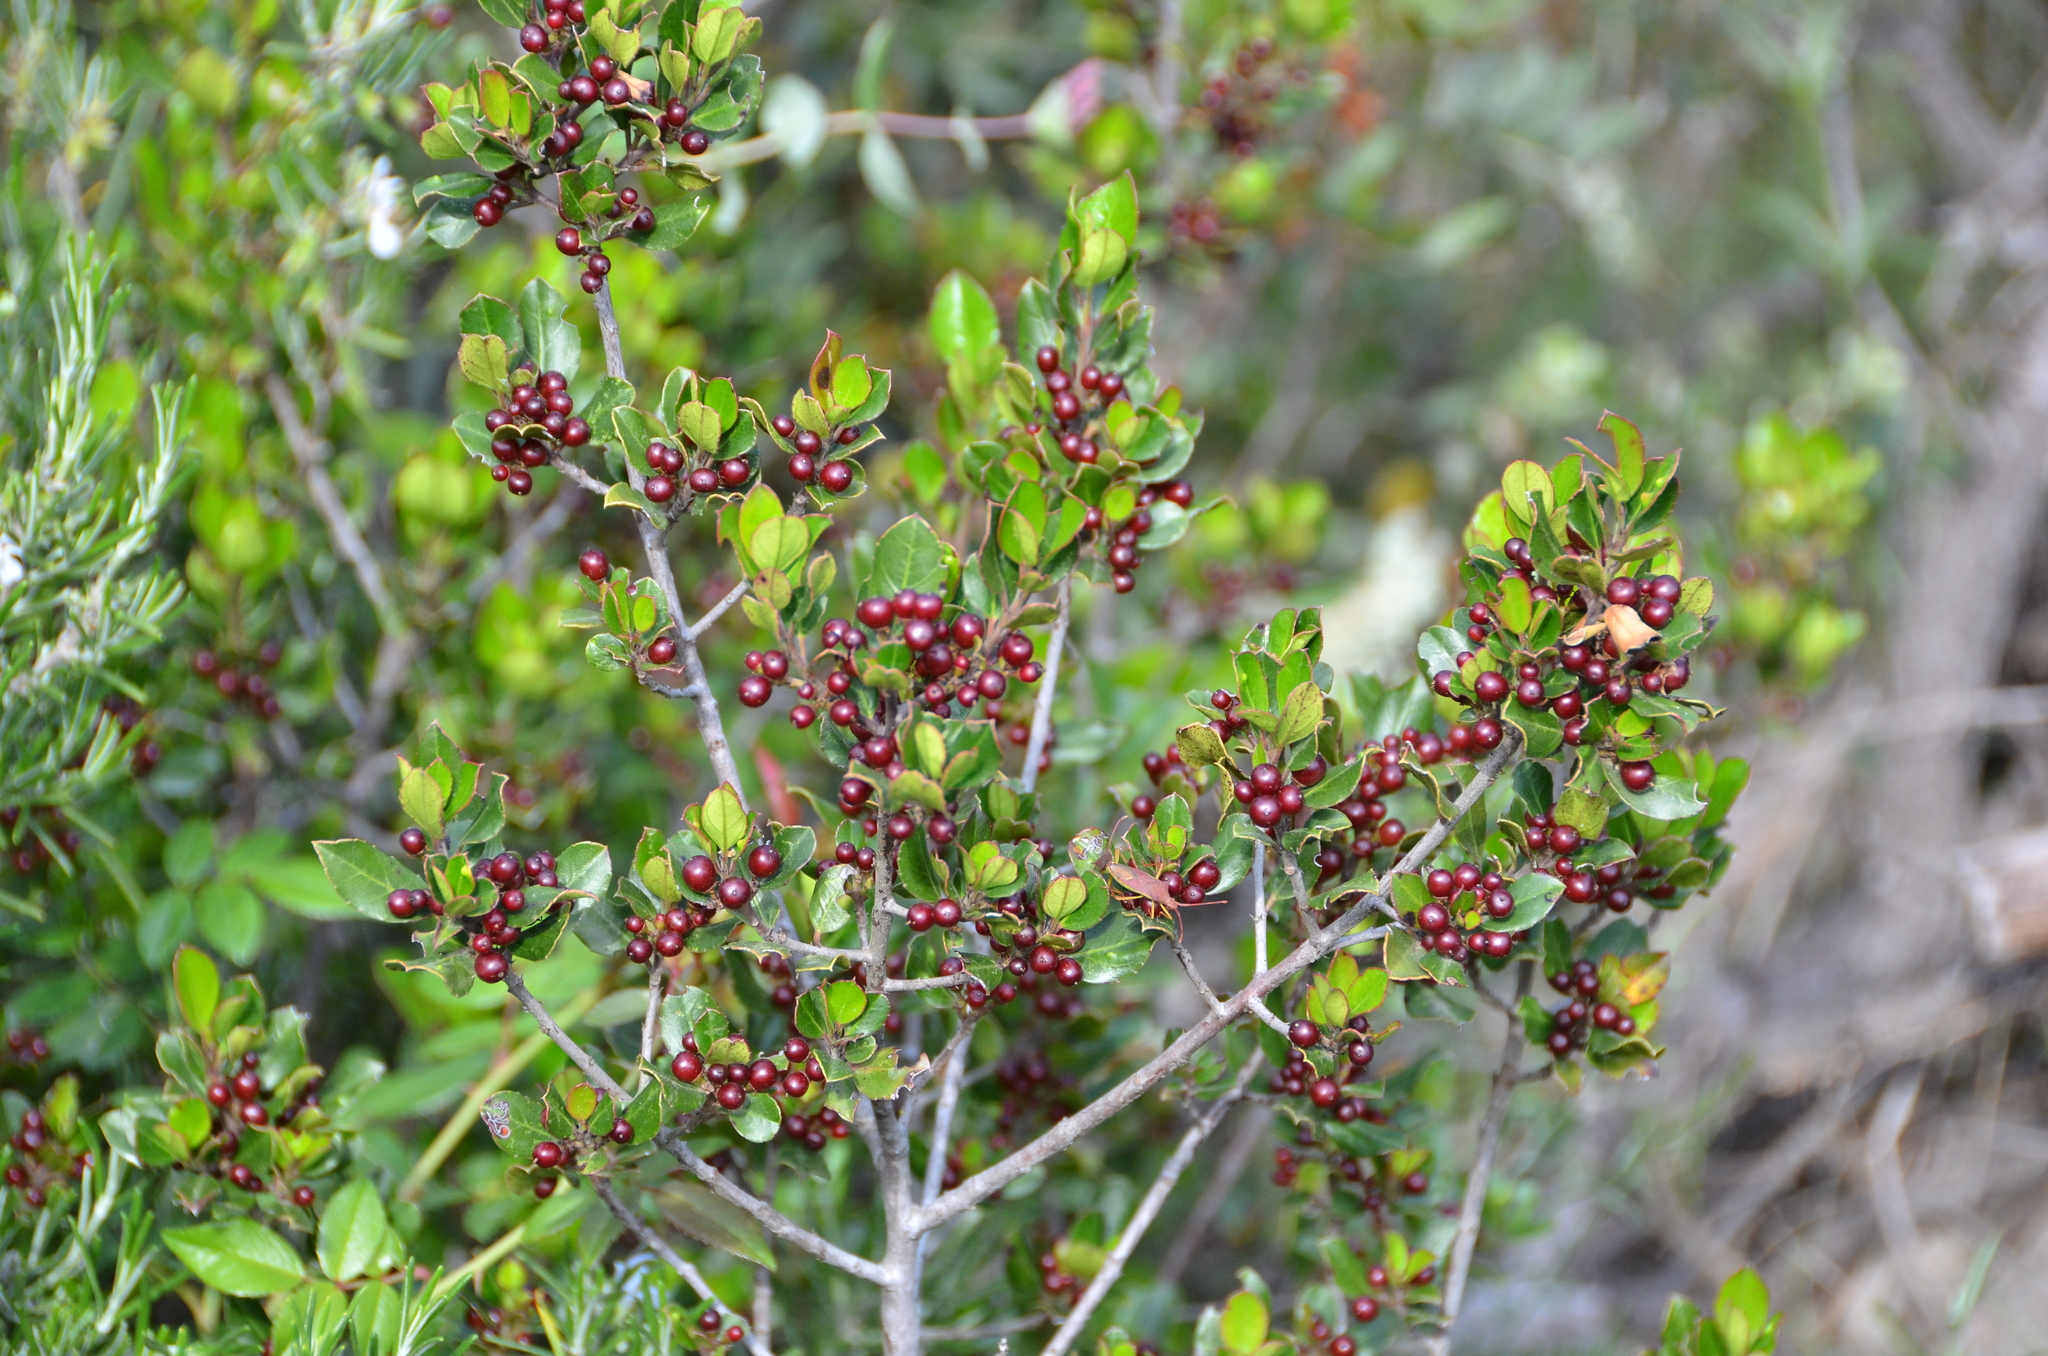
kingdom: Plantae
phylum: Tracheophyta
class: Magnoliopsida
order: Rosales
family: Rhamnaceae
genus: Rhamnus
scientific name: Rhamnus alaternus
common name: Mediterranean buckthorn
